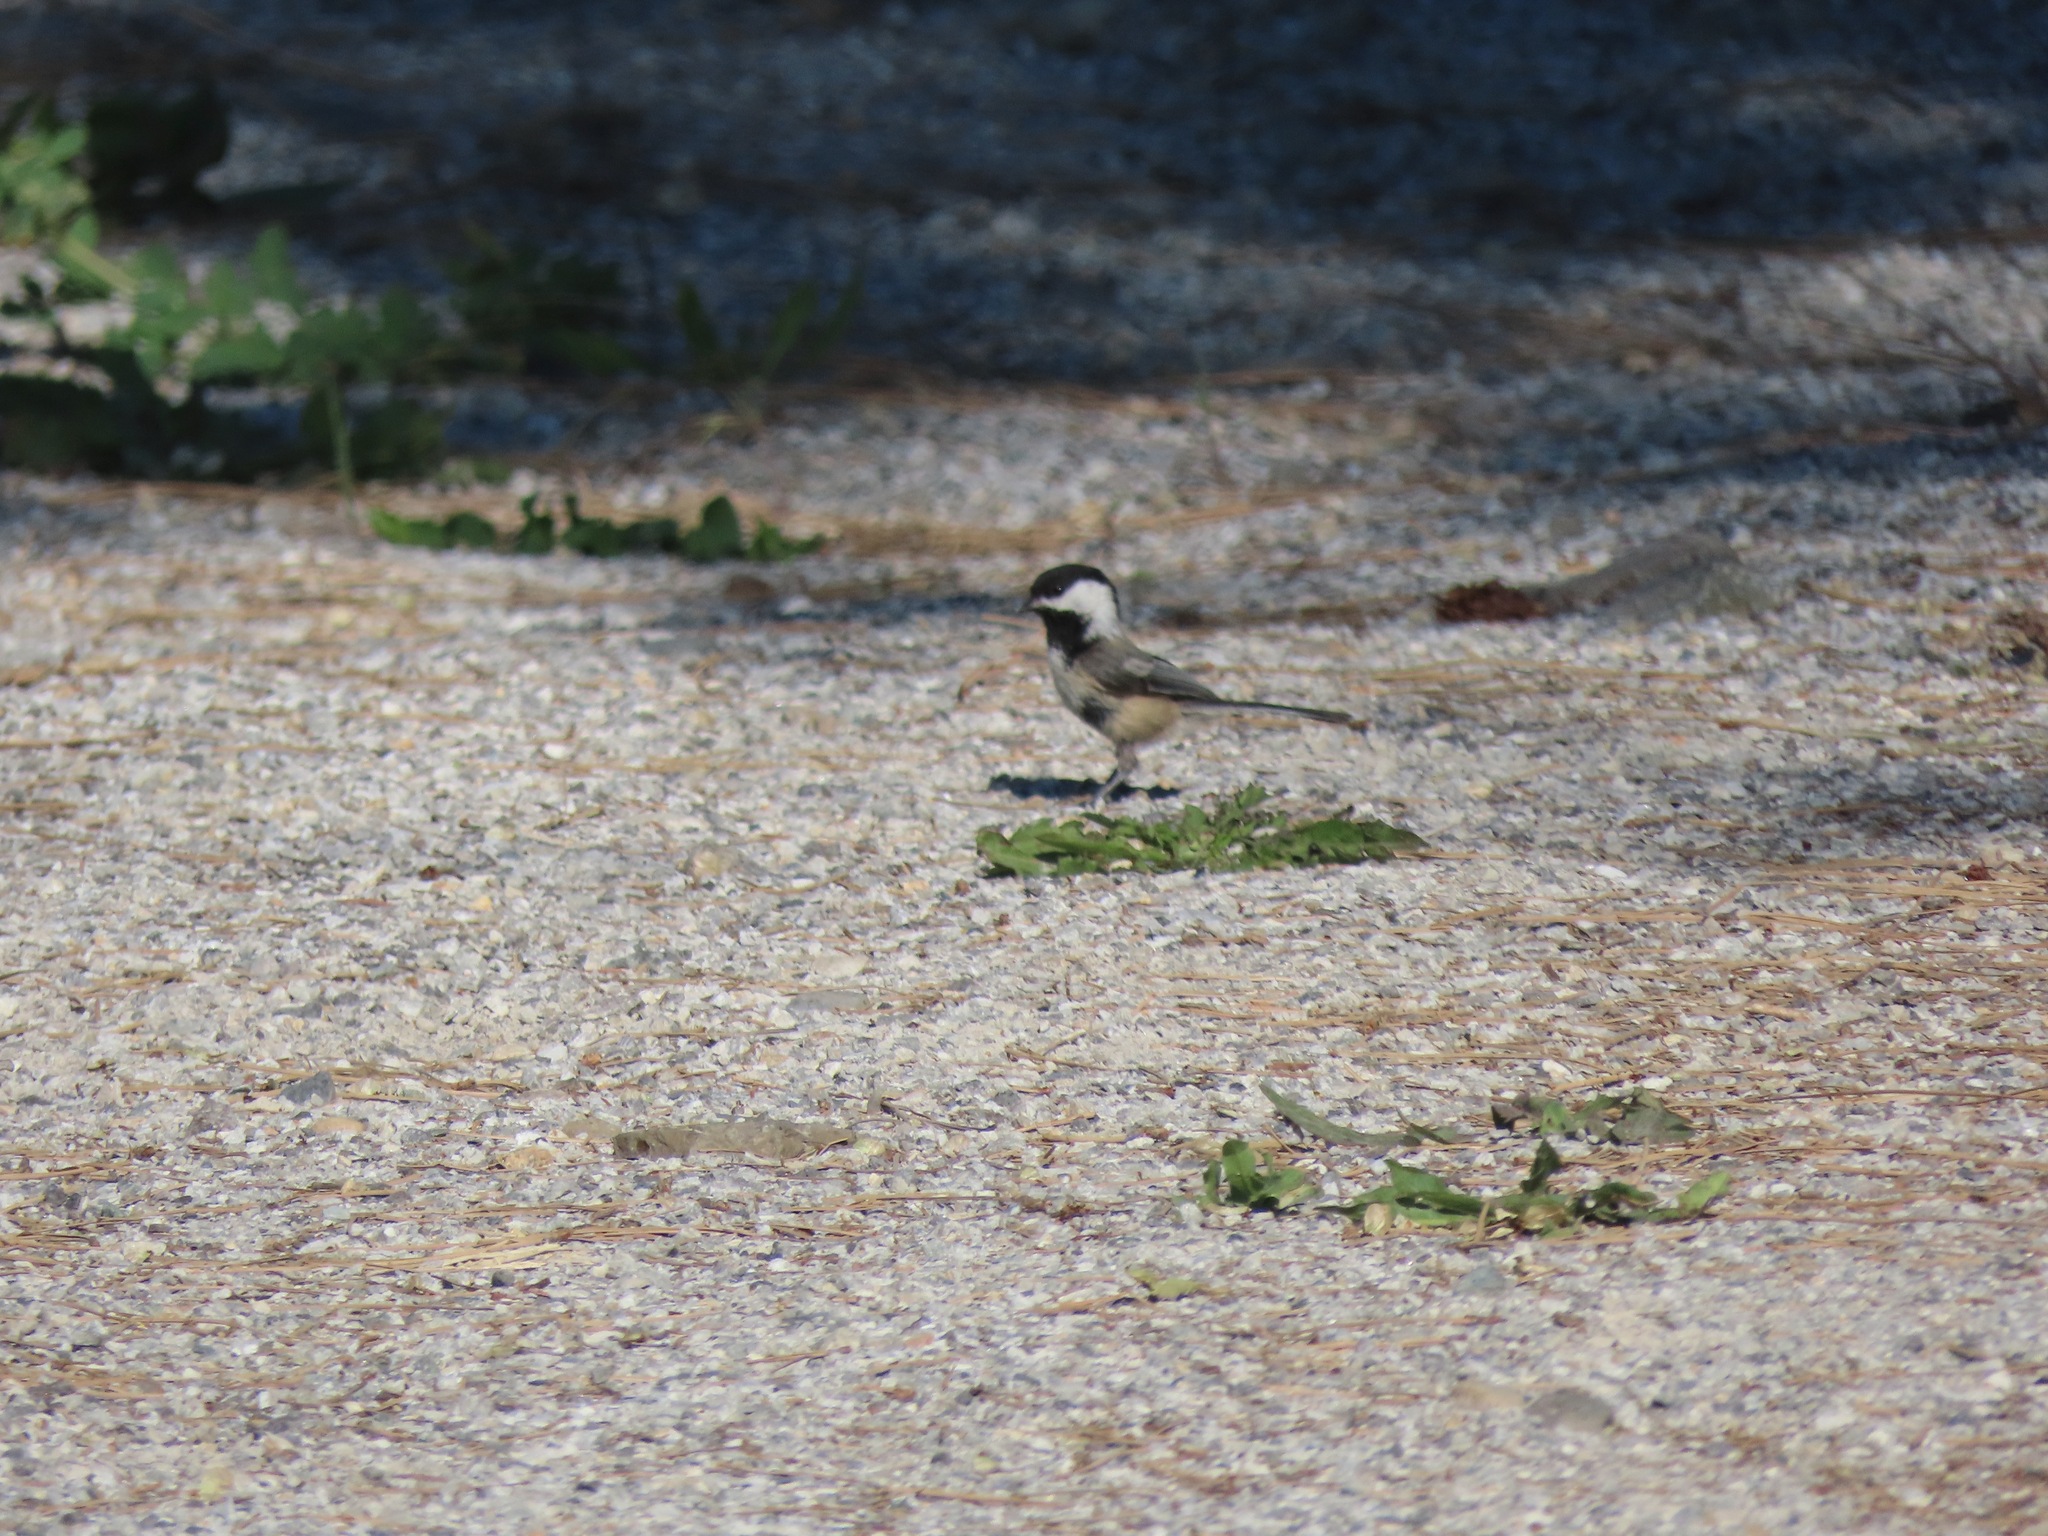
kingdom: Animalia
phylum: Chordata
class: Aves
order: Passeriformes
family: Paridae
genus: Poecile
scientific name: Poecile atricapillus
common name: Black-capped chickadee
